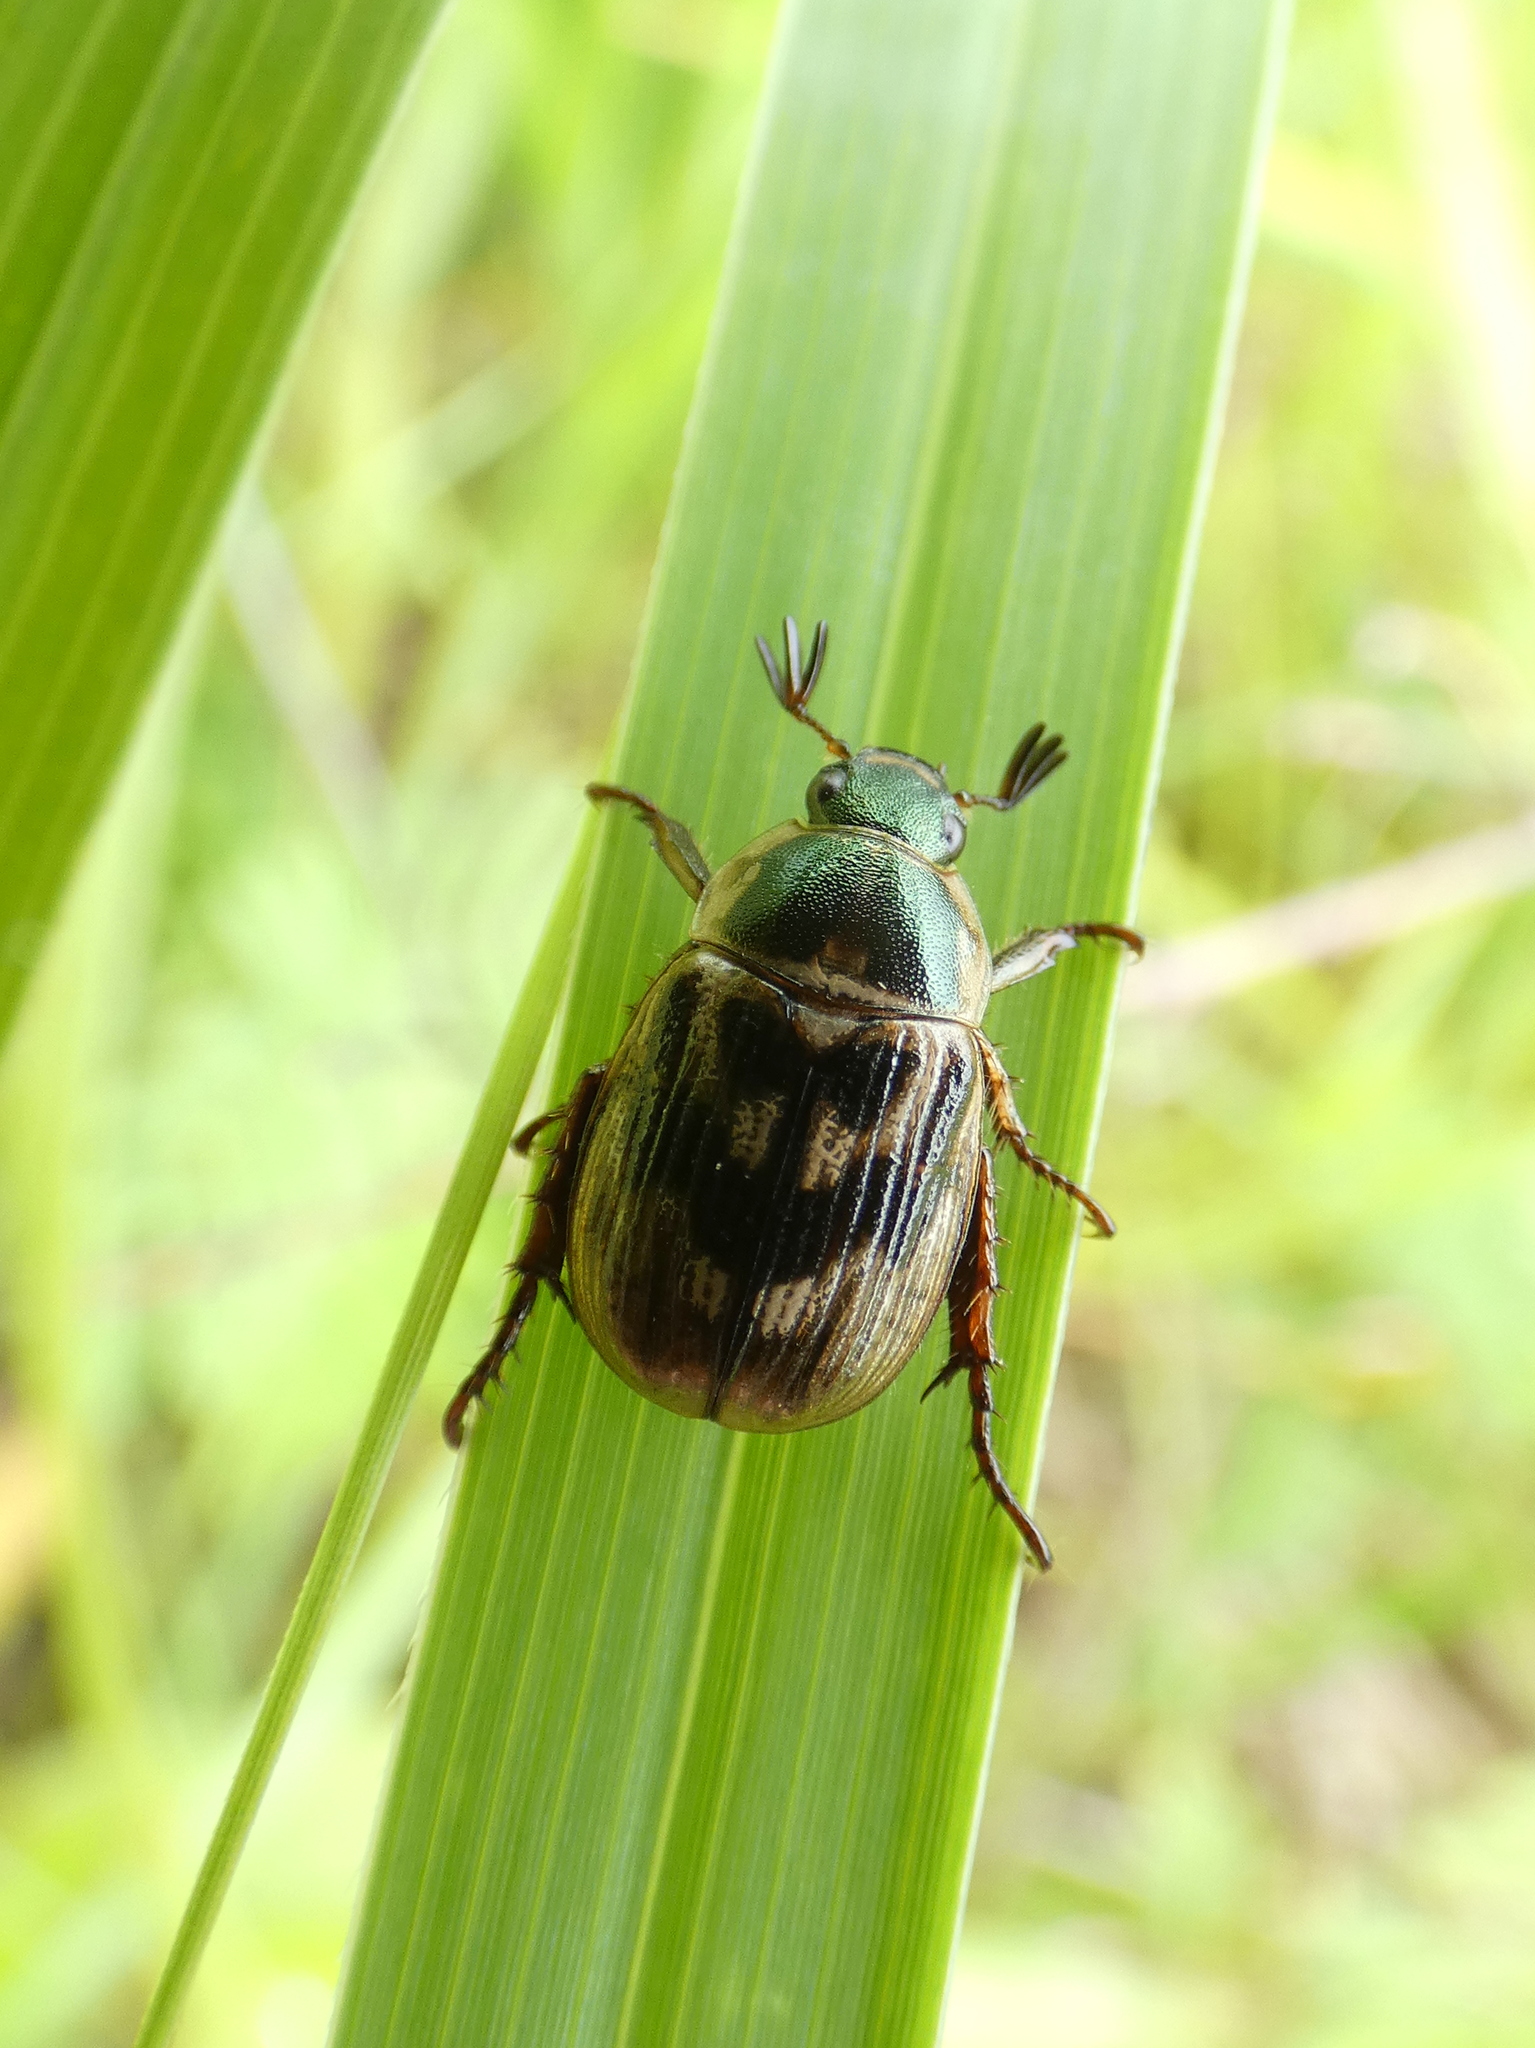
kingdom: Animalia
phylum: Arthropoda
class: Insecta
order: Coleoptera
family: Scarabaeidae
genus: Exomala
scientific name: Exomala orientalis
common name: Oriental beetle
